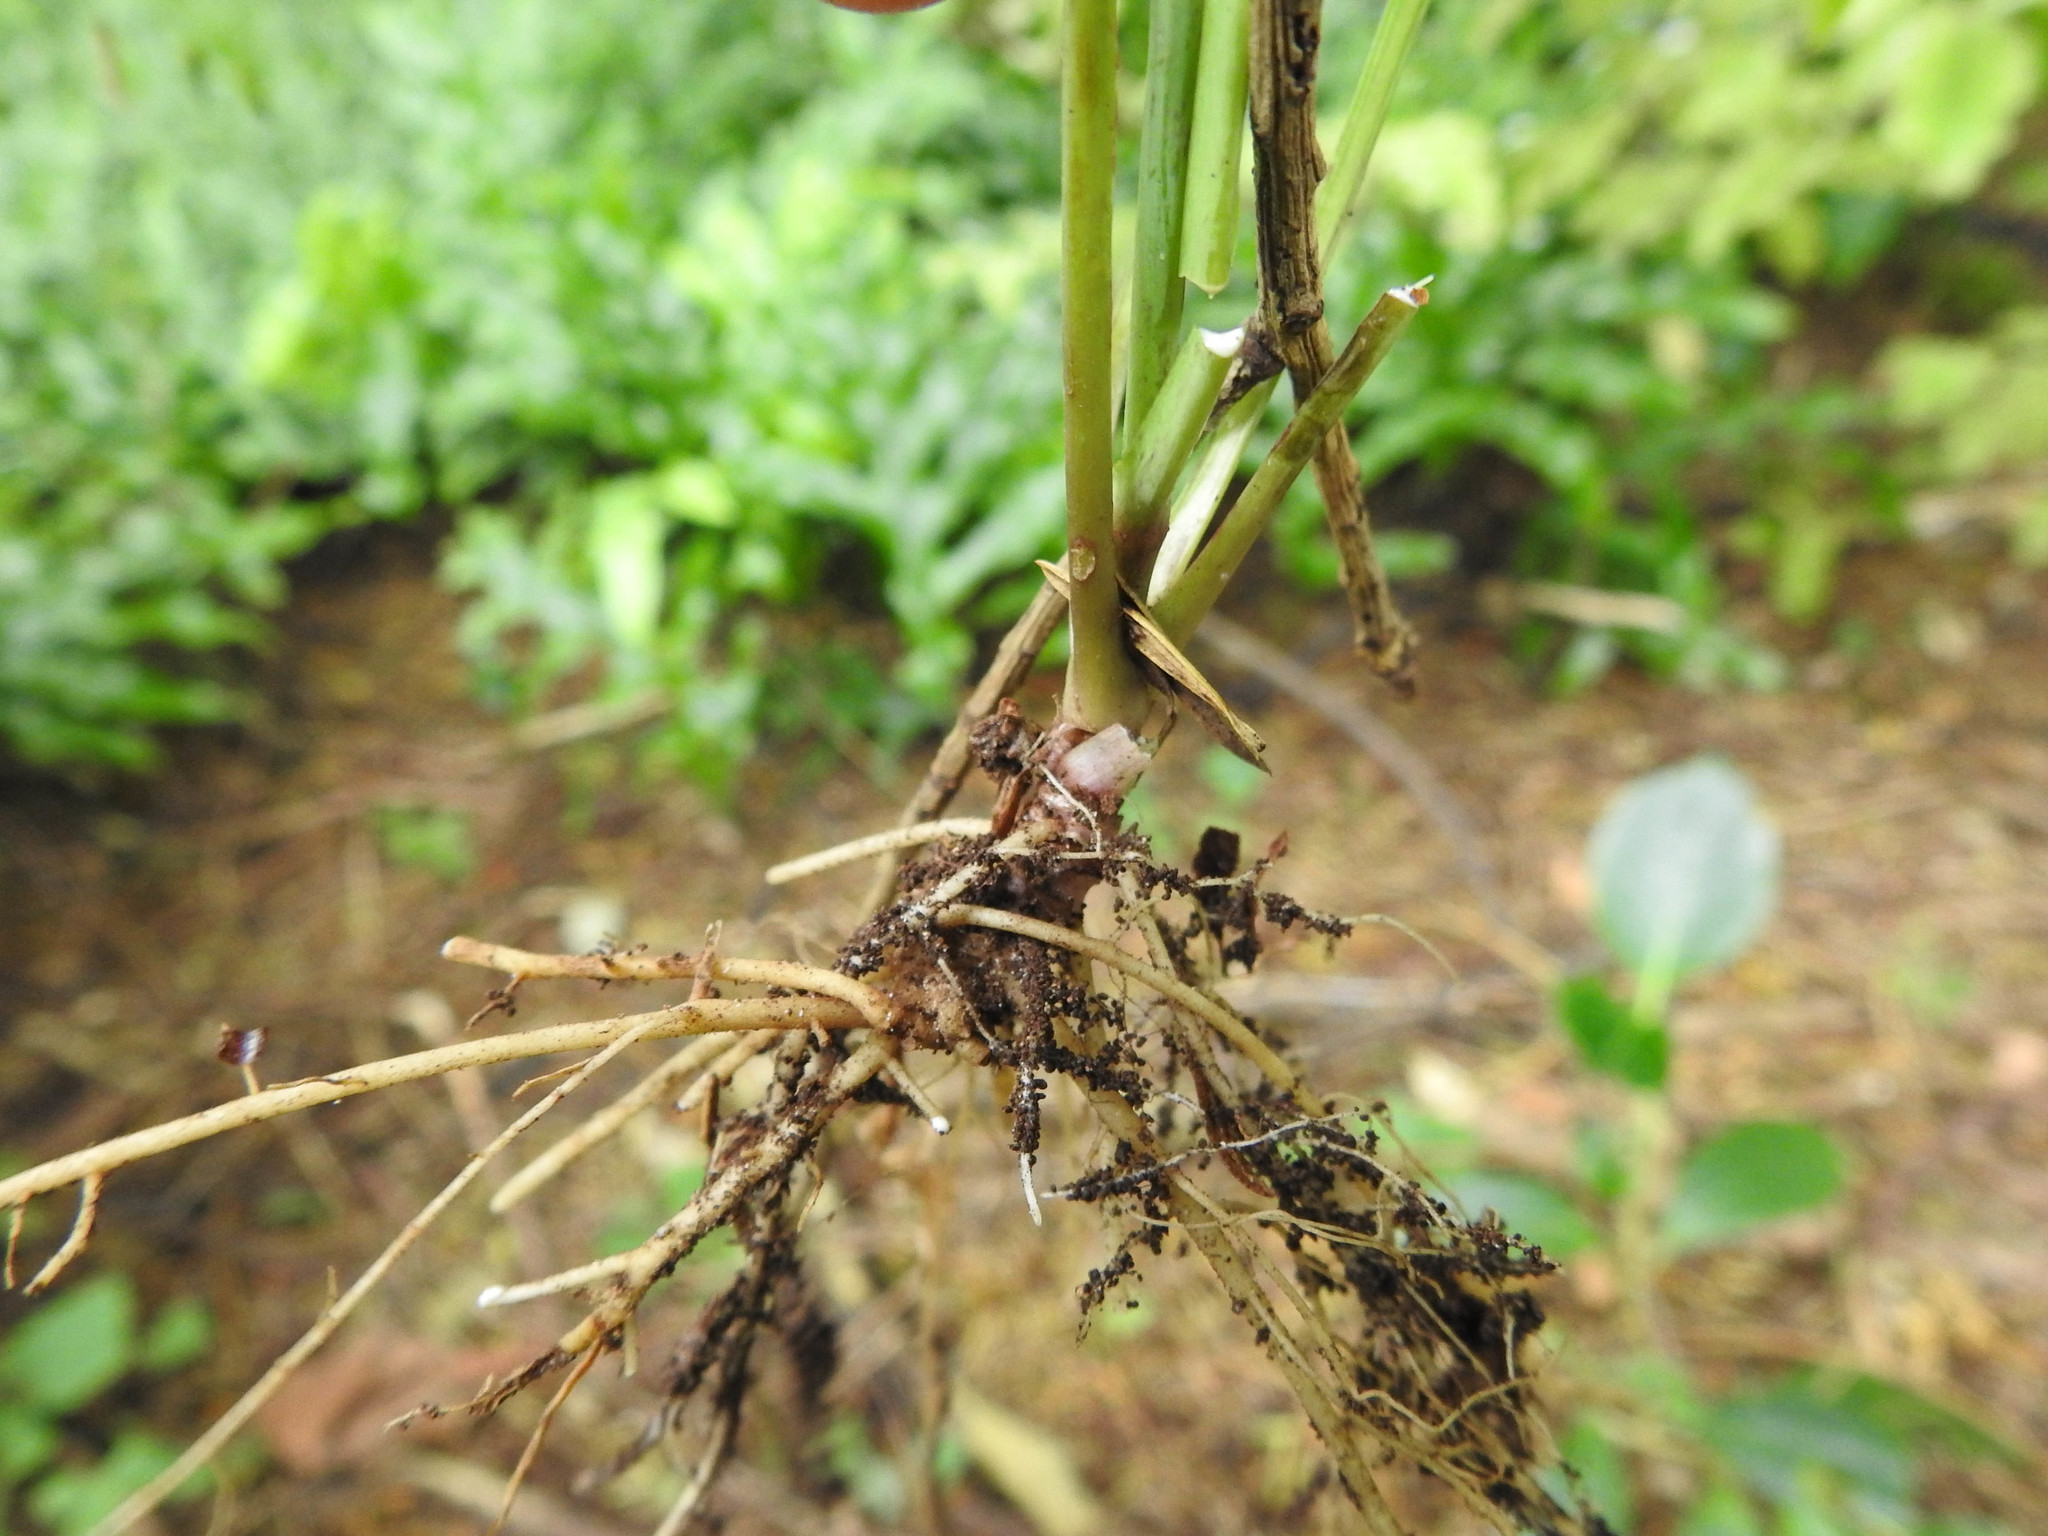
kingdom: Plantae
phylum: Tracheophyta
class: Magnoliopsida
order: Asterales
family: Asteraceae
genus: Mycelis
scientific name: Mycelis muralis
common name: Wall lettuce
